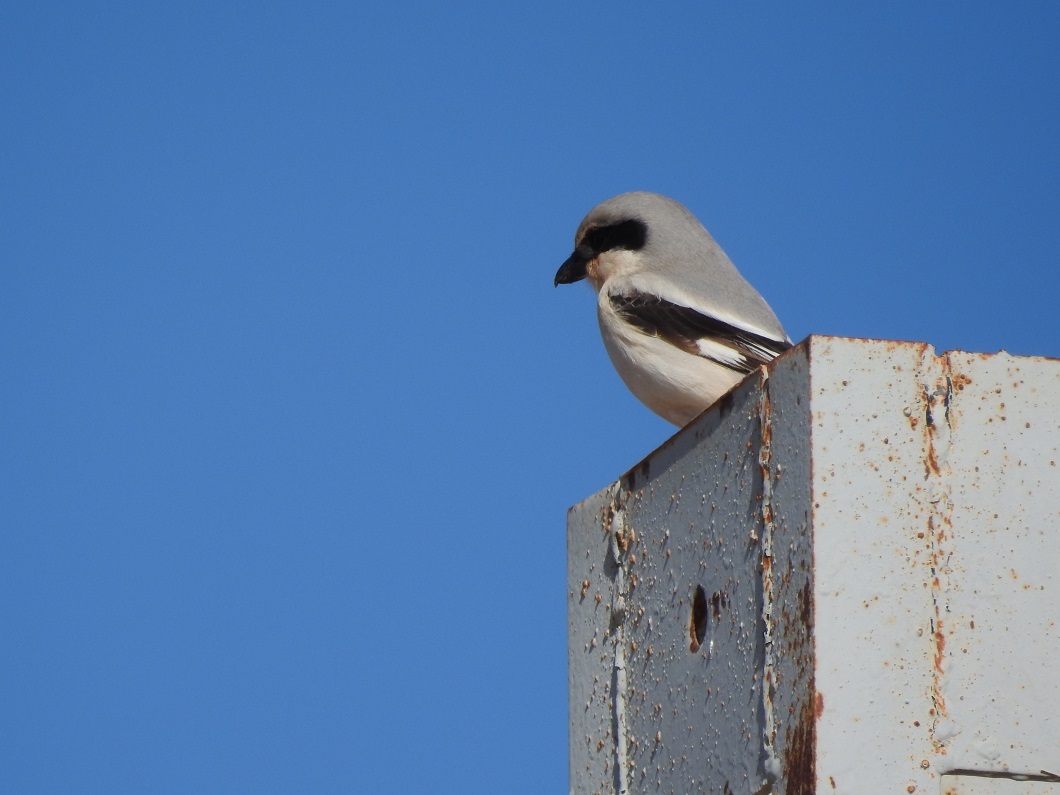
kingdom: Animalia
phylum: Chordata
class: Aves
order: Passeriformes
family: Laniidae
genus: Lanius
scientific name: Lanius excubitor
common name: Great grey shrike
